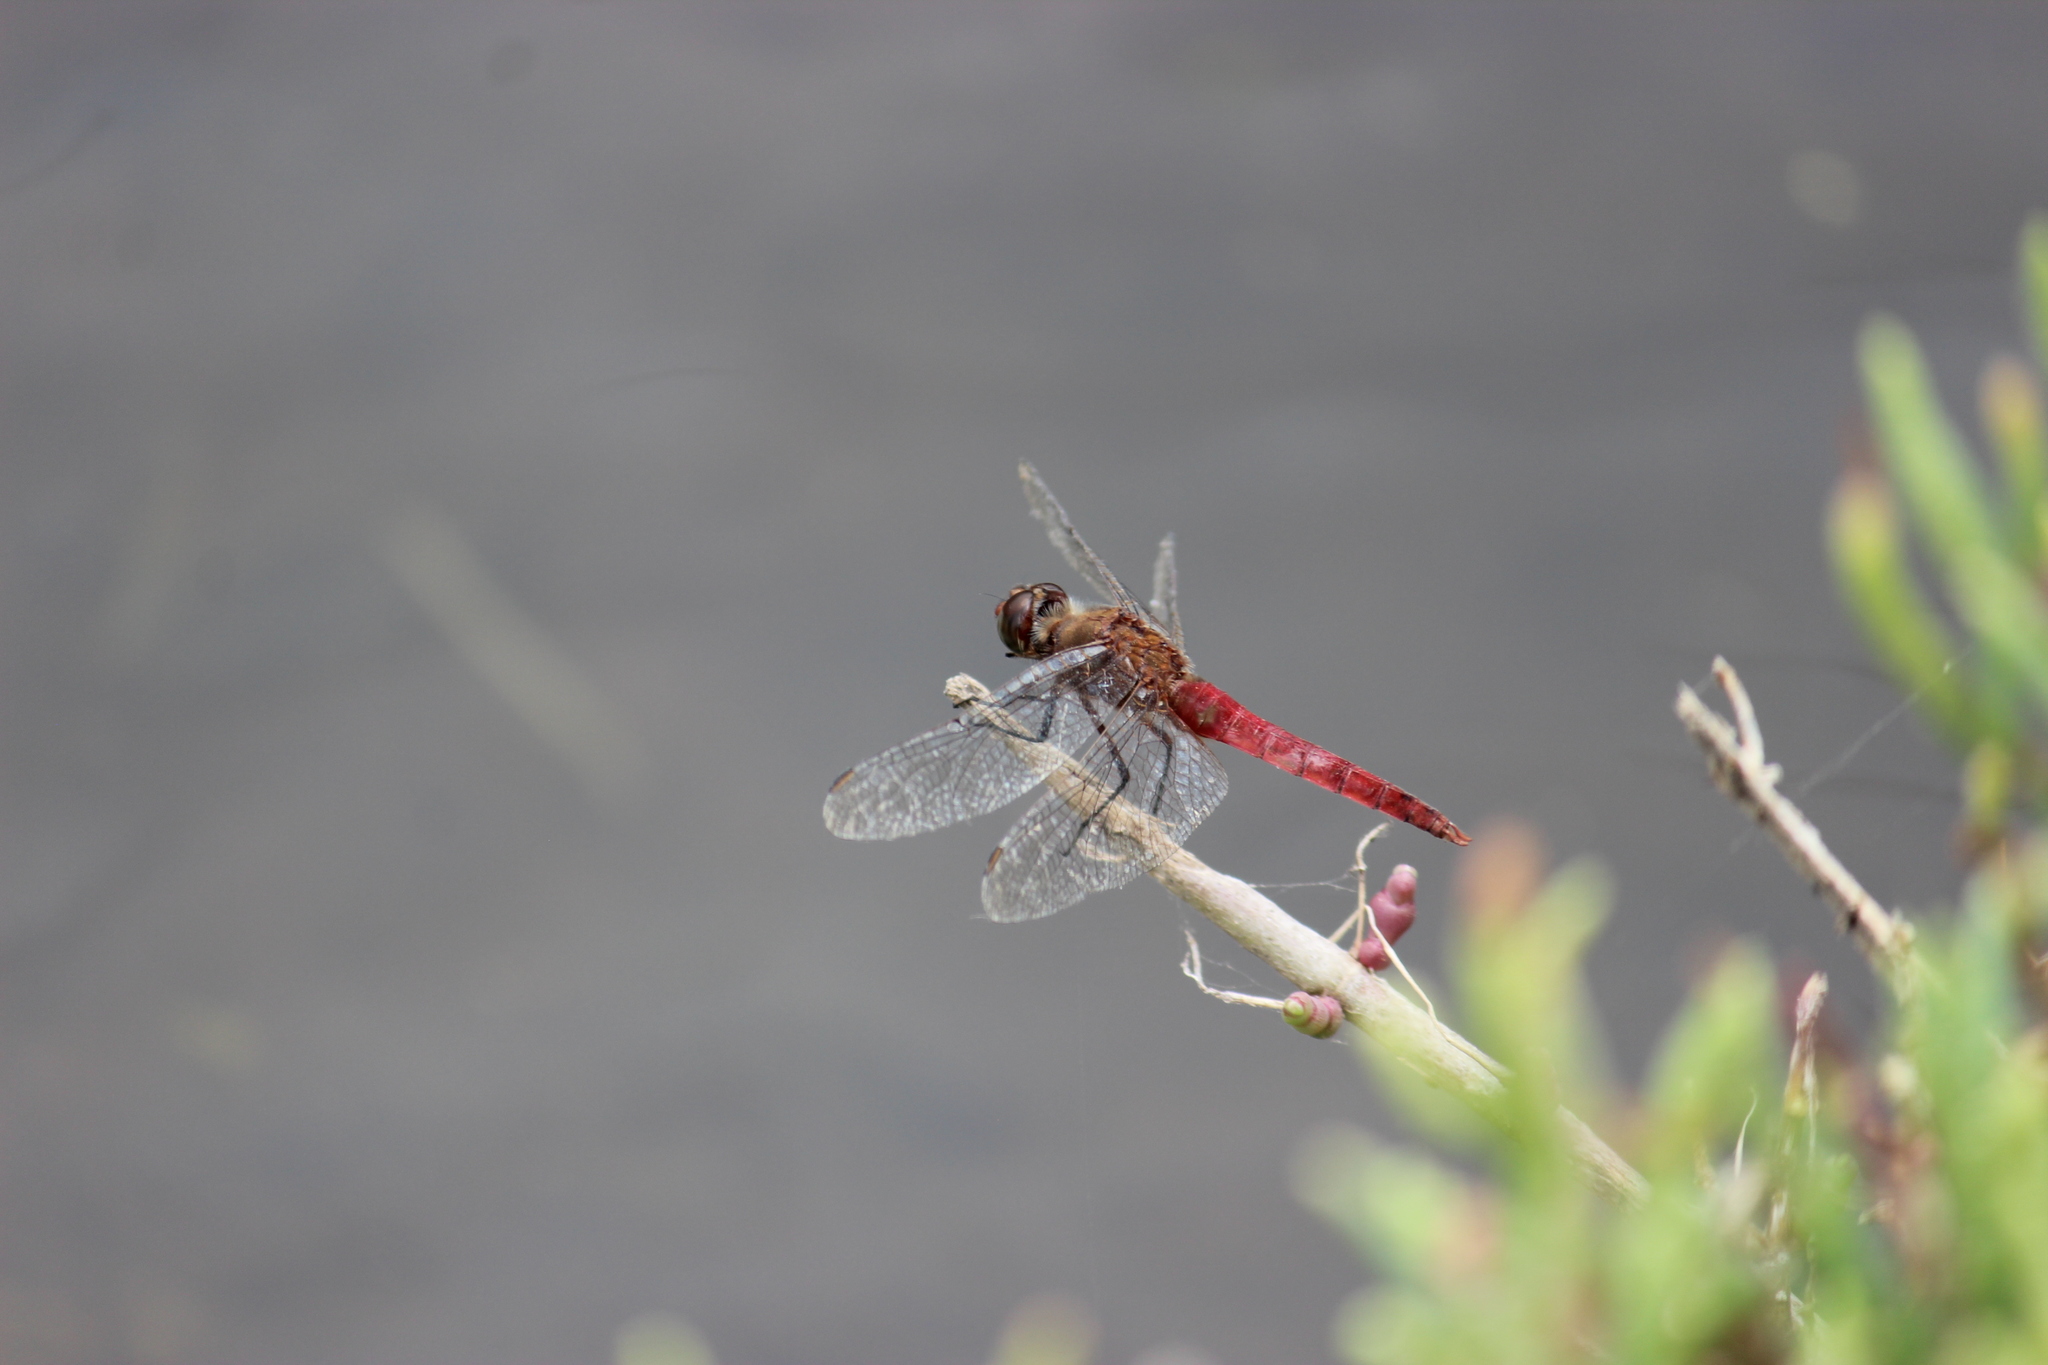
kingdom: Animalia
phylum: Arthropoda
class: Insecta
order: Odonata
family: Libellulidae
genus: Brachymesia
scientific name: Brachymesia furcata
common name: Red-taled pennant
